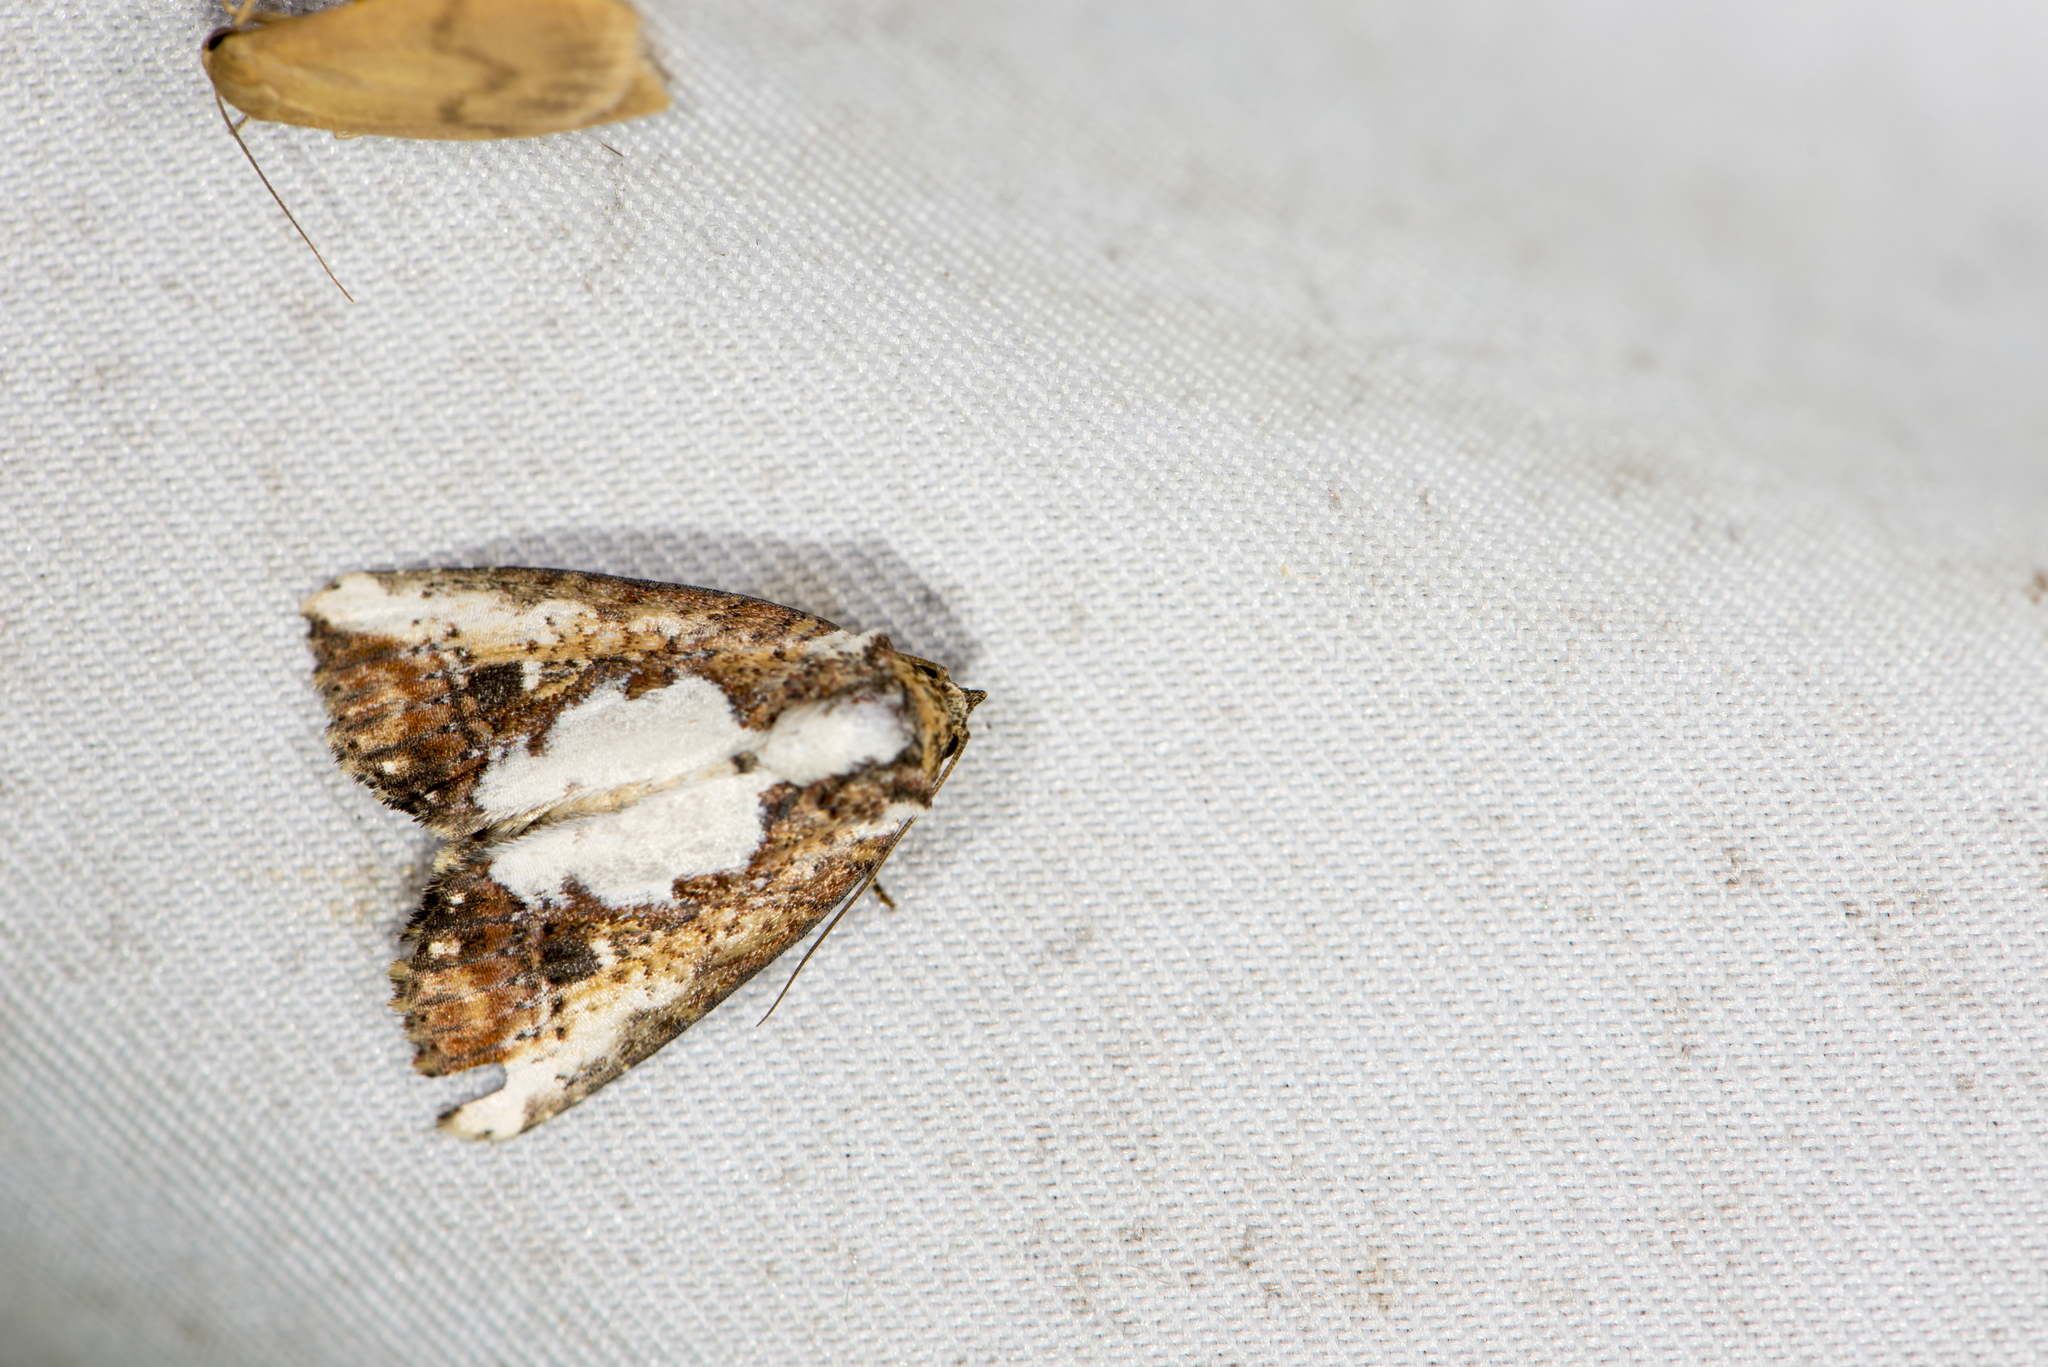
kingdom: Animalia
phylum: Arthropoda
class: Insecta
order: Lepidoptera
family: Noctuidae
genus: Bagada
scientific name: Bagada poliomera
